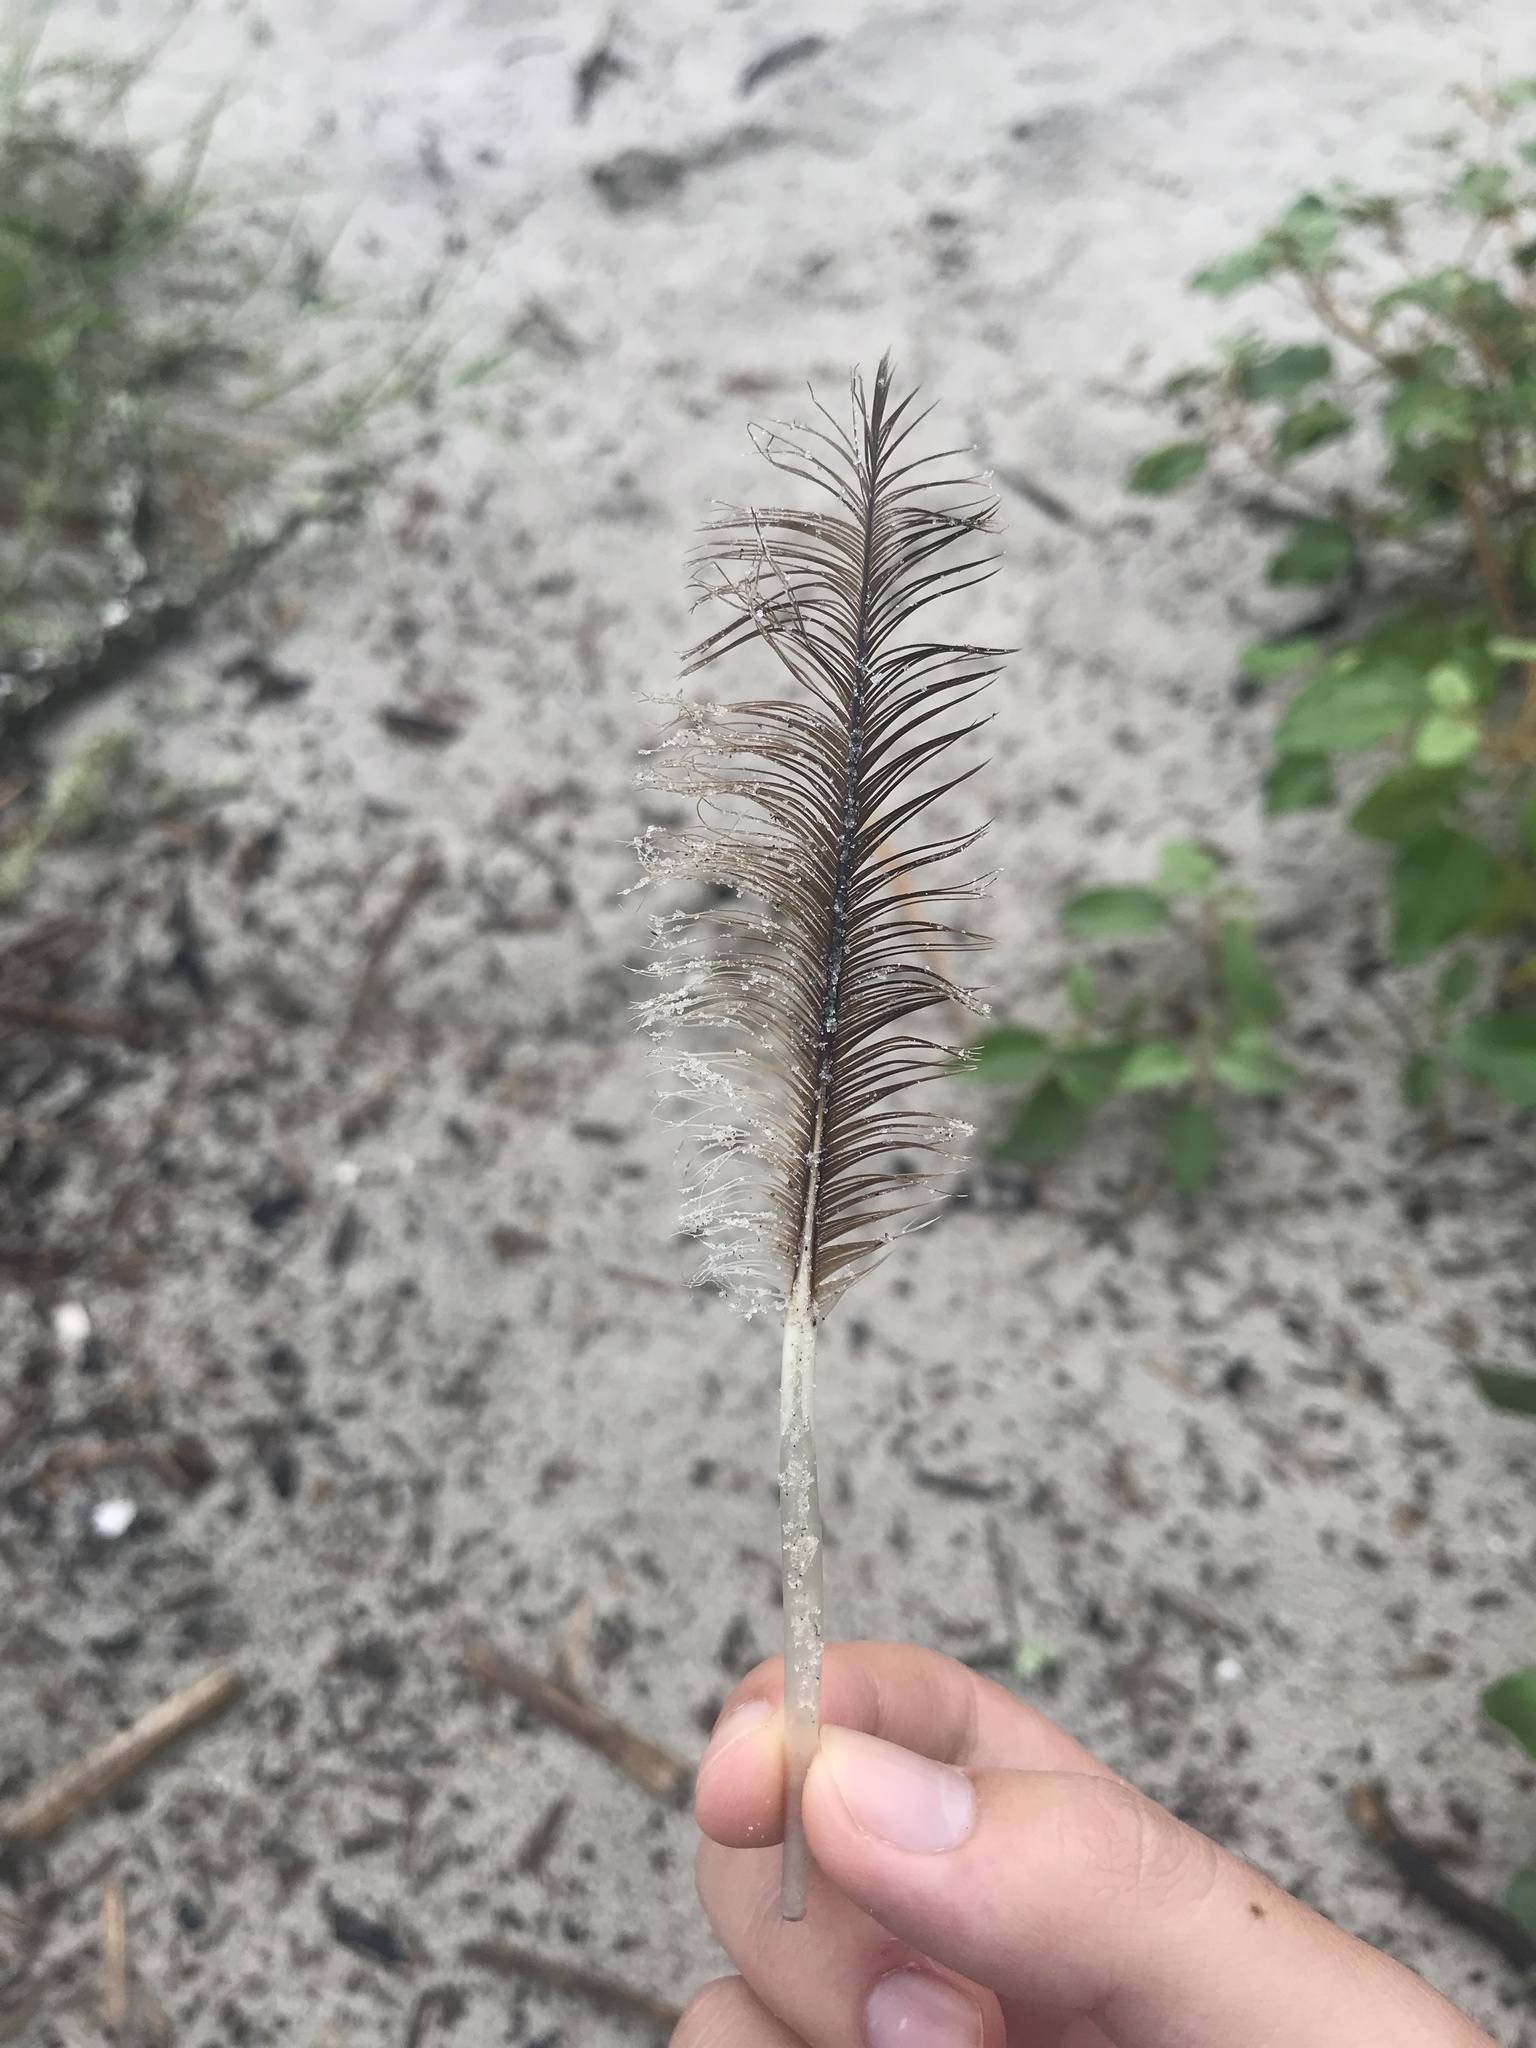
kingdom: Animalia
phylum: Chordata
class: Aves
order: Pelecaniformes
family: Pelecanidae
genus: Pelecanus
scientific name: Pelecanus occidentalis
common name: Brown pelican
